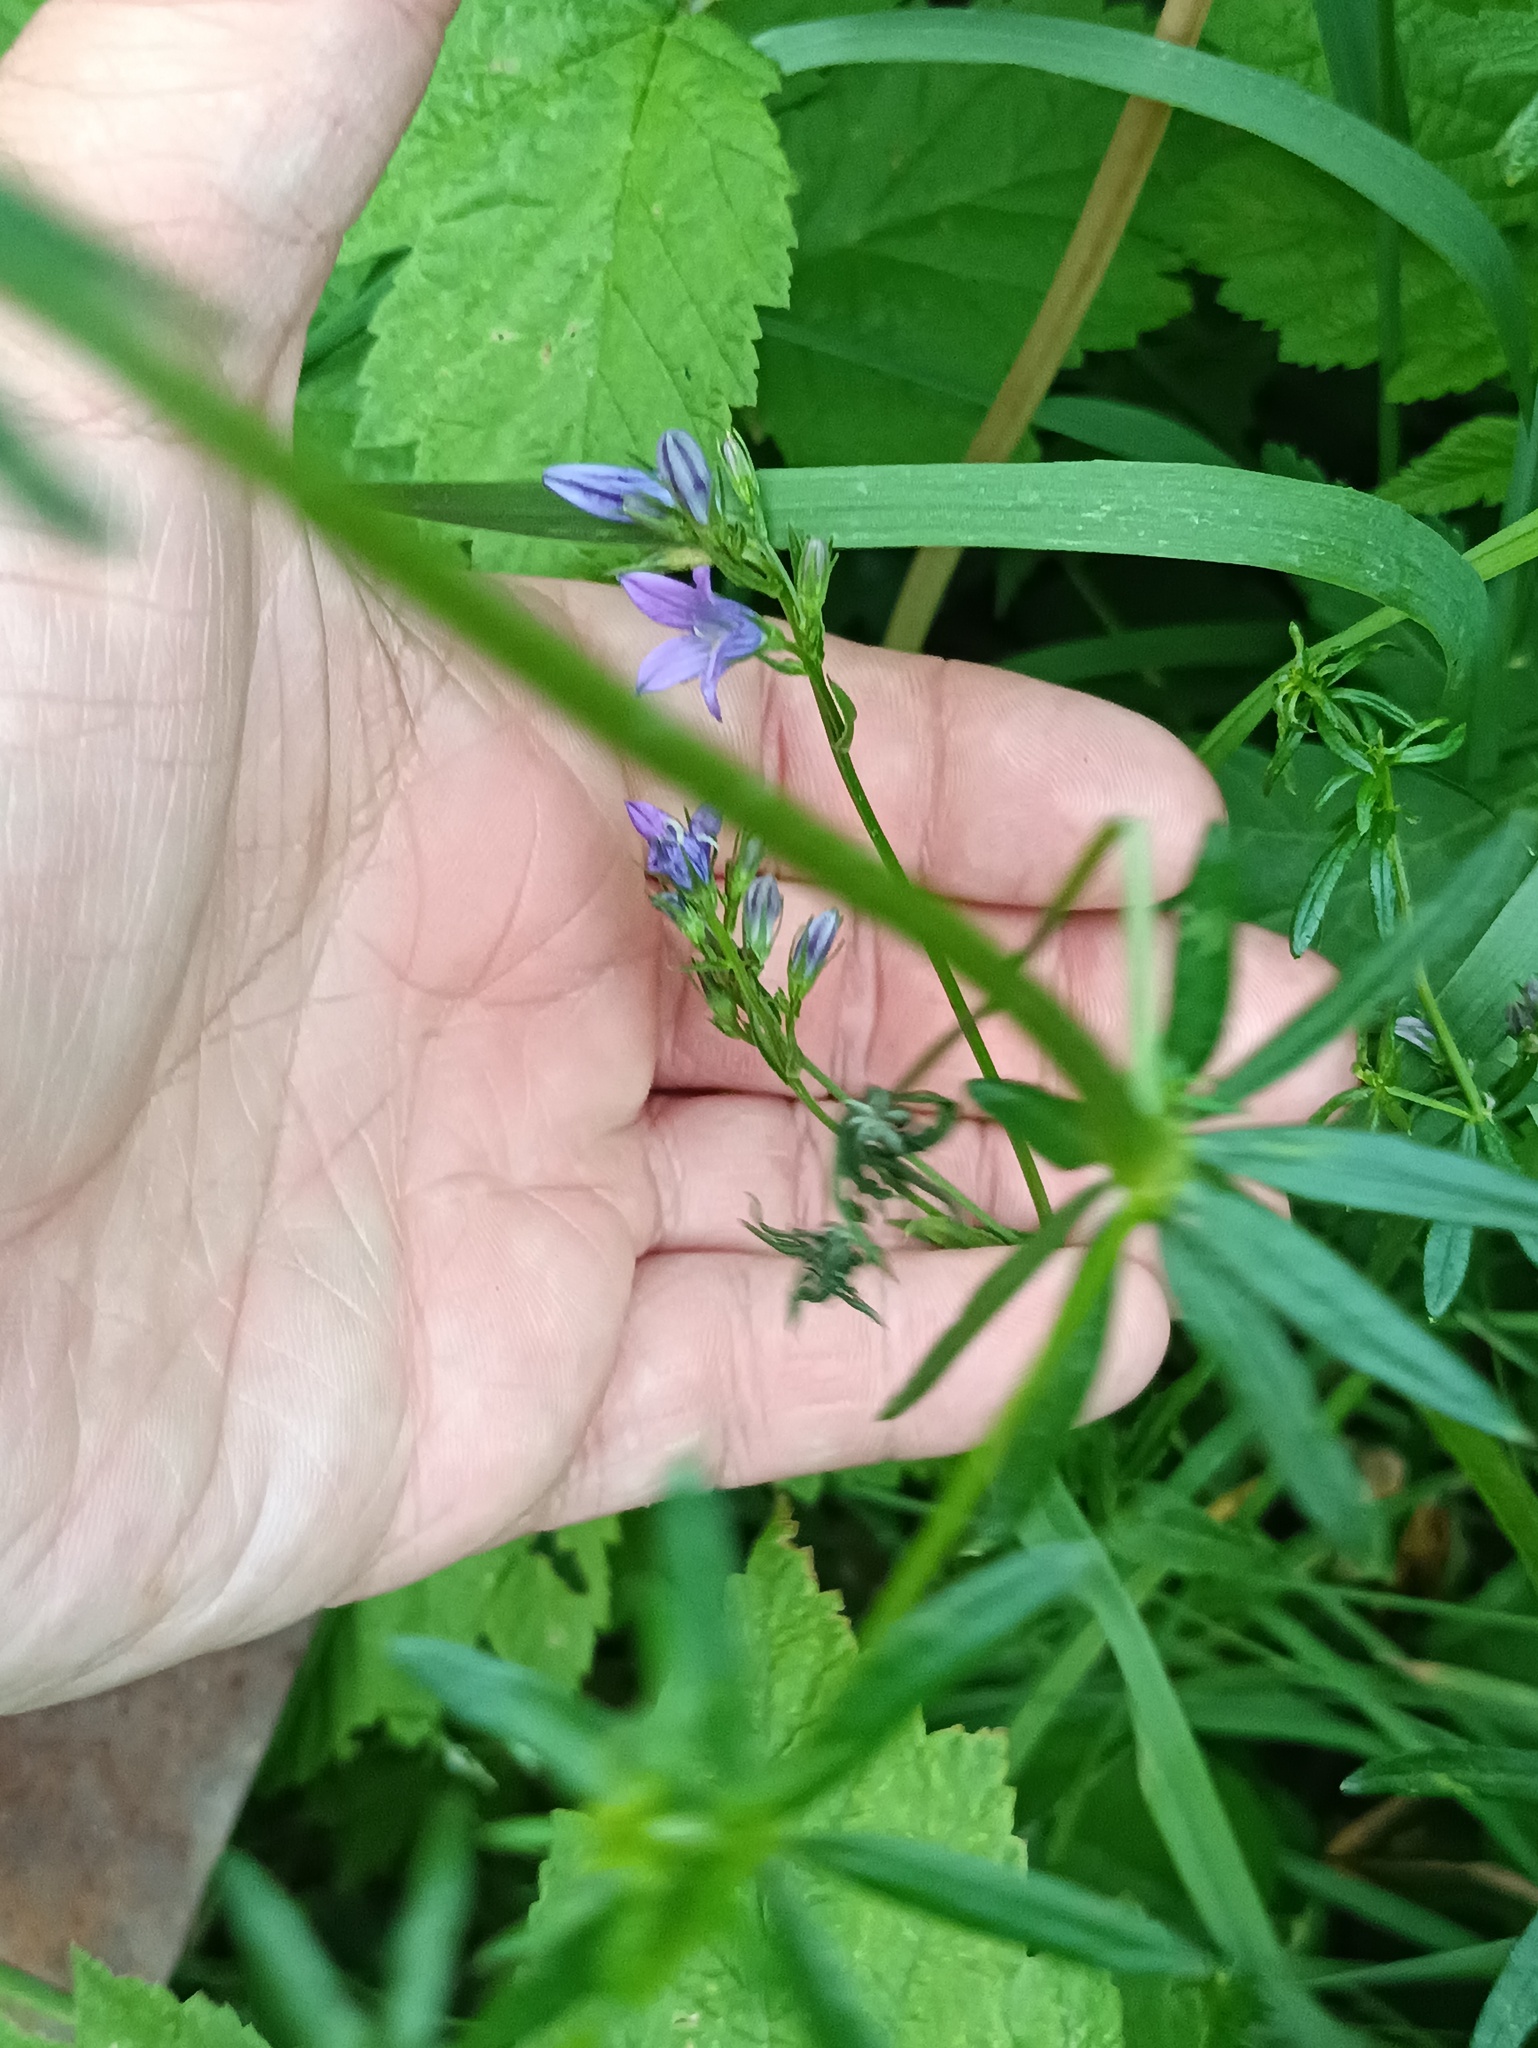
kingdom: Plantae
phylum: Tracheophyta
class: Magnoliopsida
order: Asterales
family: Campanulaceae
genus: Campanula
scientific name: Campanula patula
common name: Spreading bellflower
